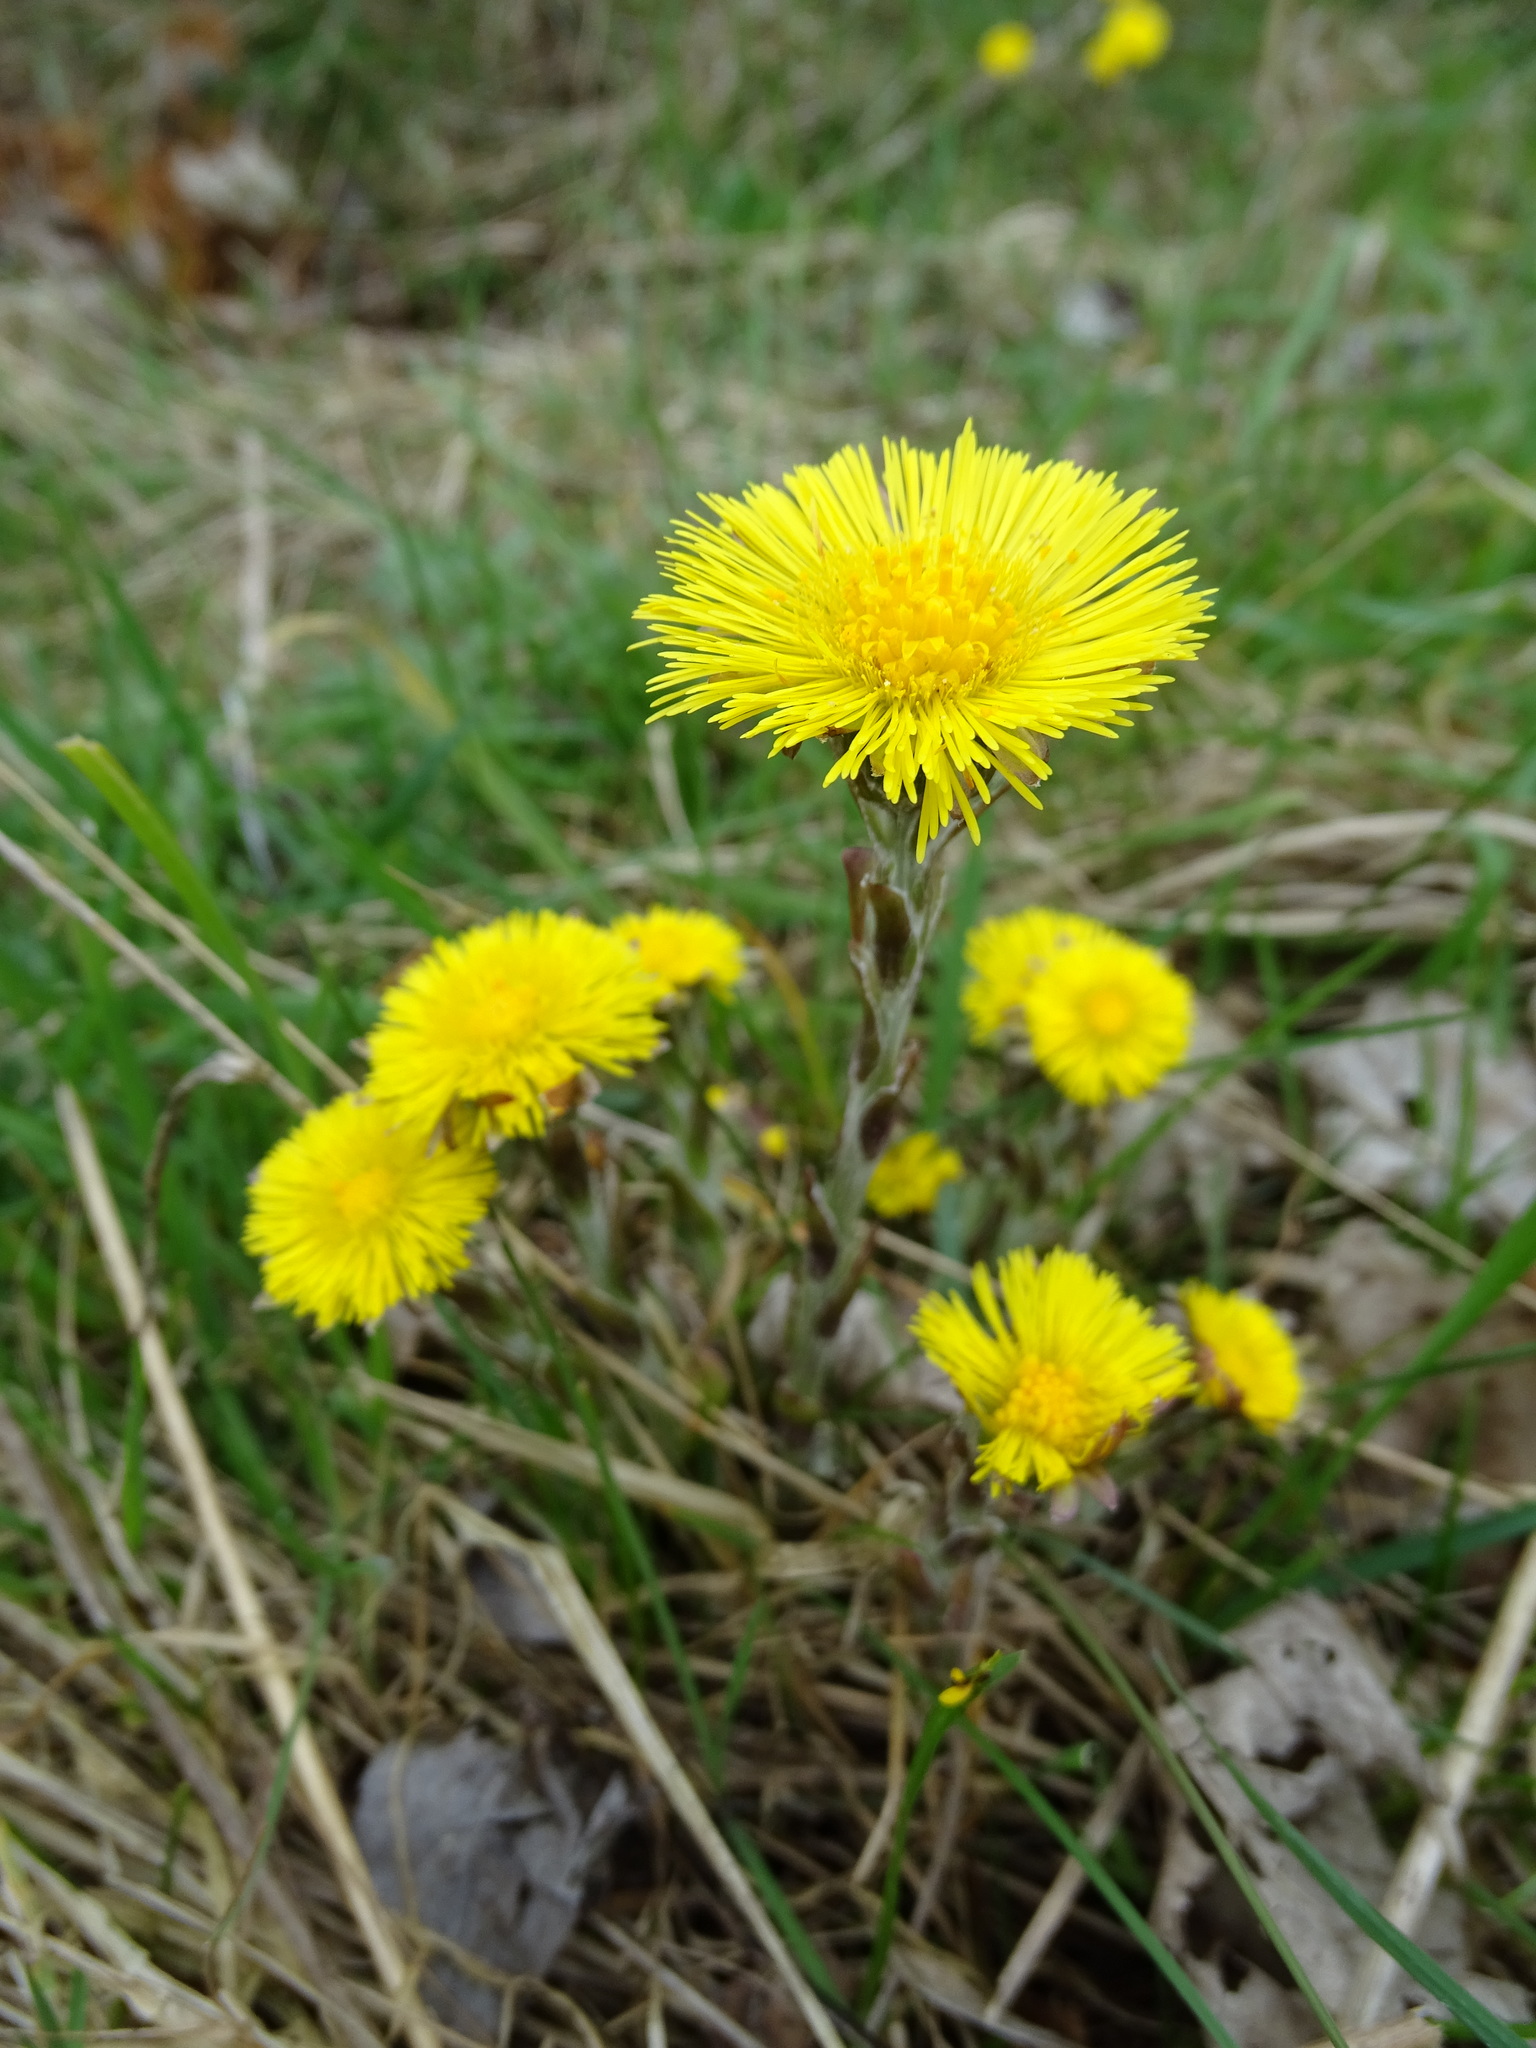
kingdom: Plantae
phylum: Tracheophyta
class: Magnoliopsida
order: Asterales
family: Asteraceae
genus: Tussilago
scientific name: Tussilago farfara
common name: Coltsfoot
